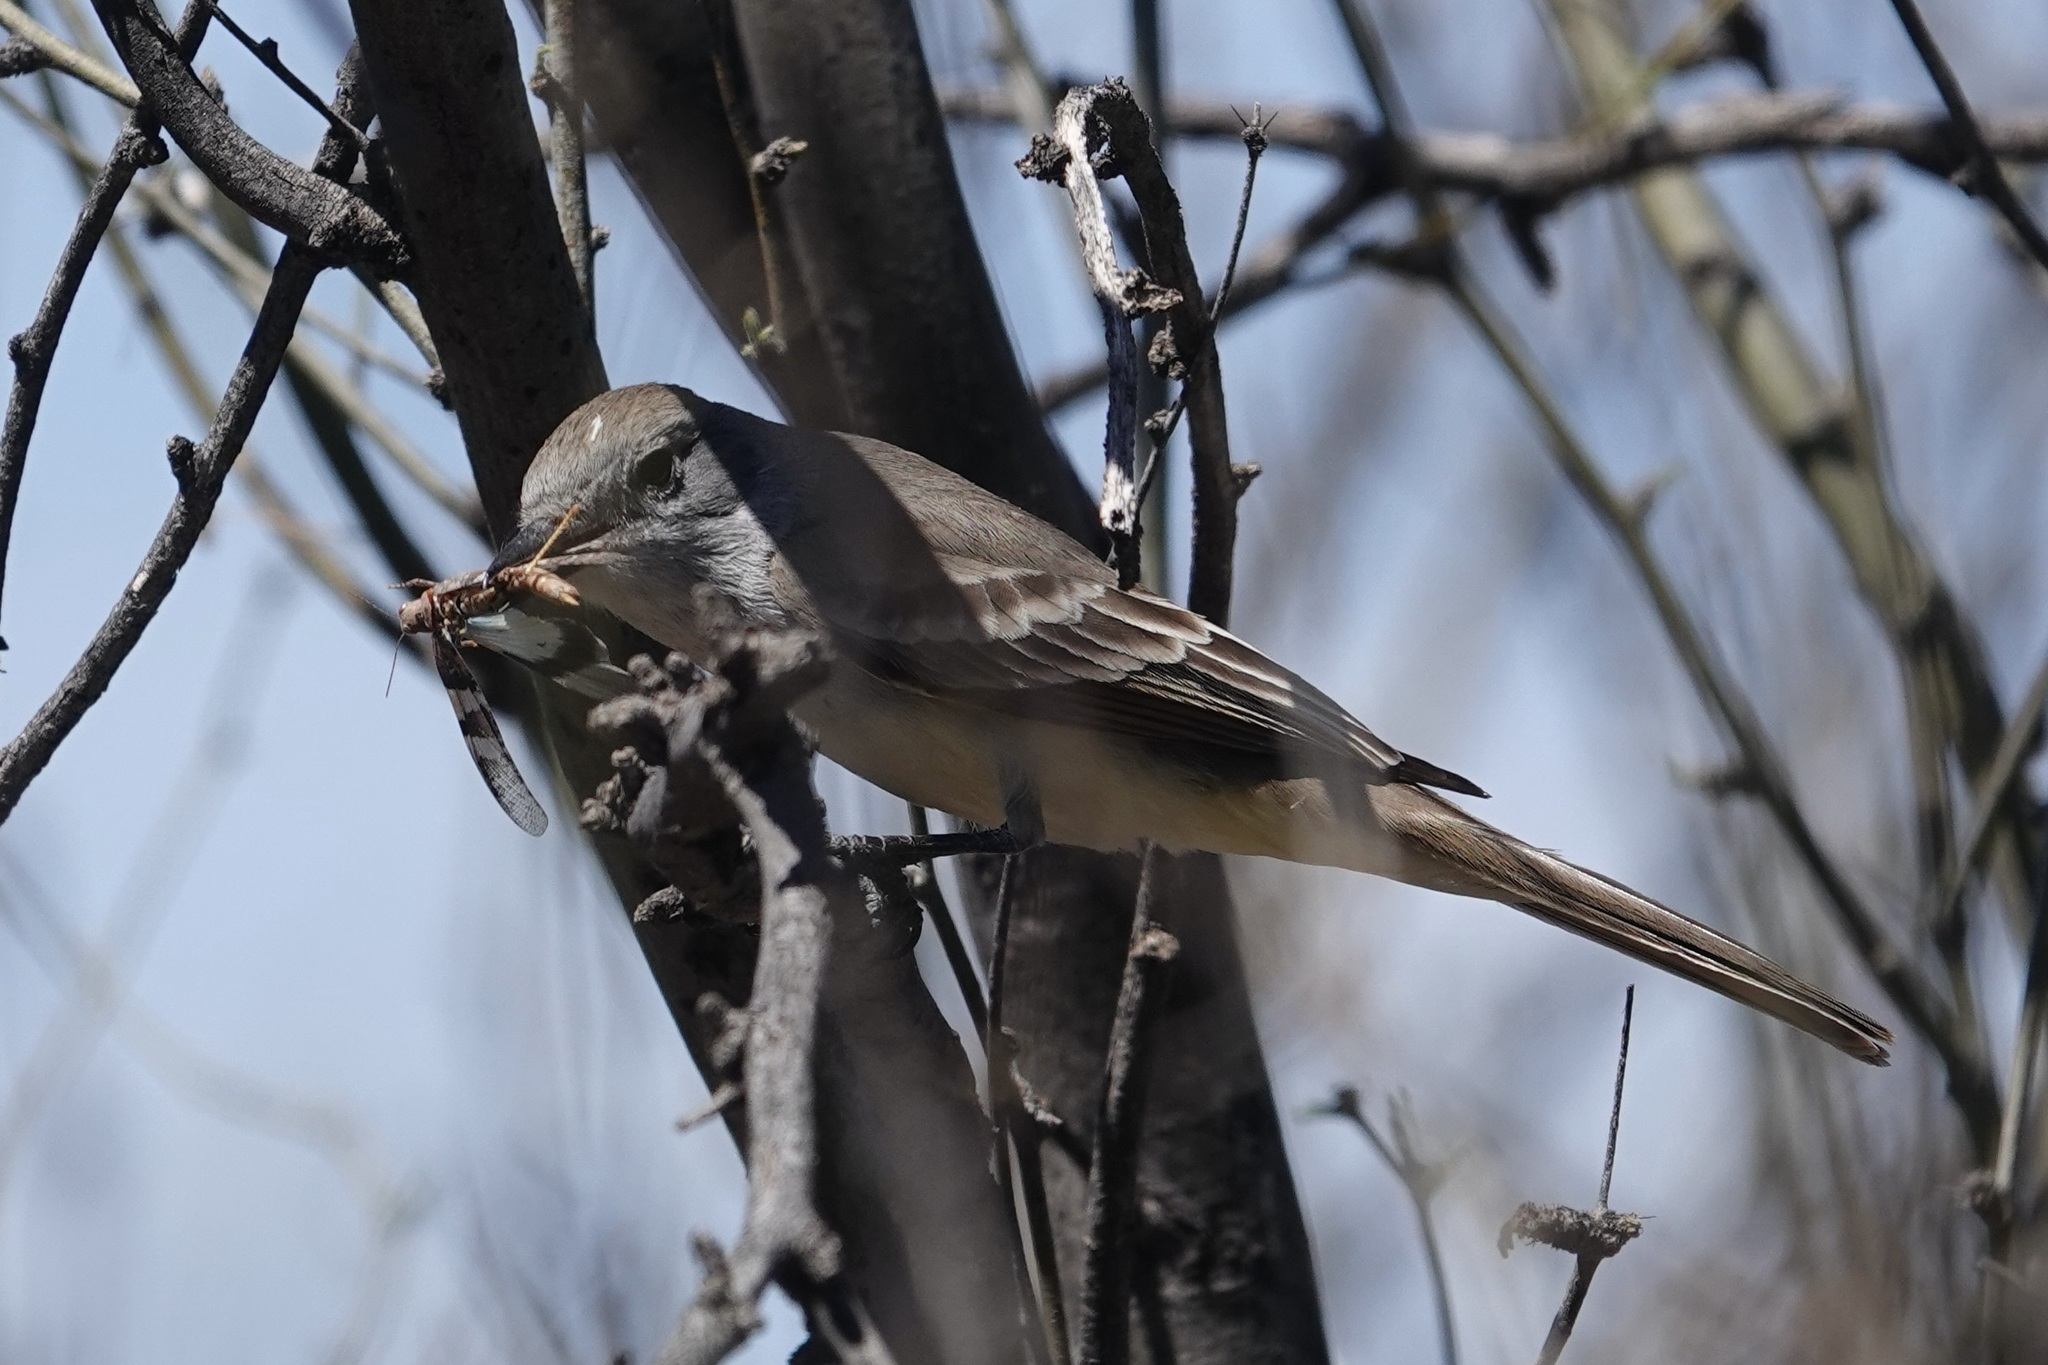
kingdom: Animalia
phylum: Chordata
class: Aves
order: Passeriformes
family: Tyrannidae
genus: Myiarchus
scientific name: Myiarchus cinerascens
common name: Ash-throated flycatcher
